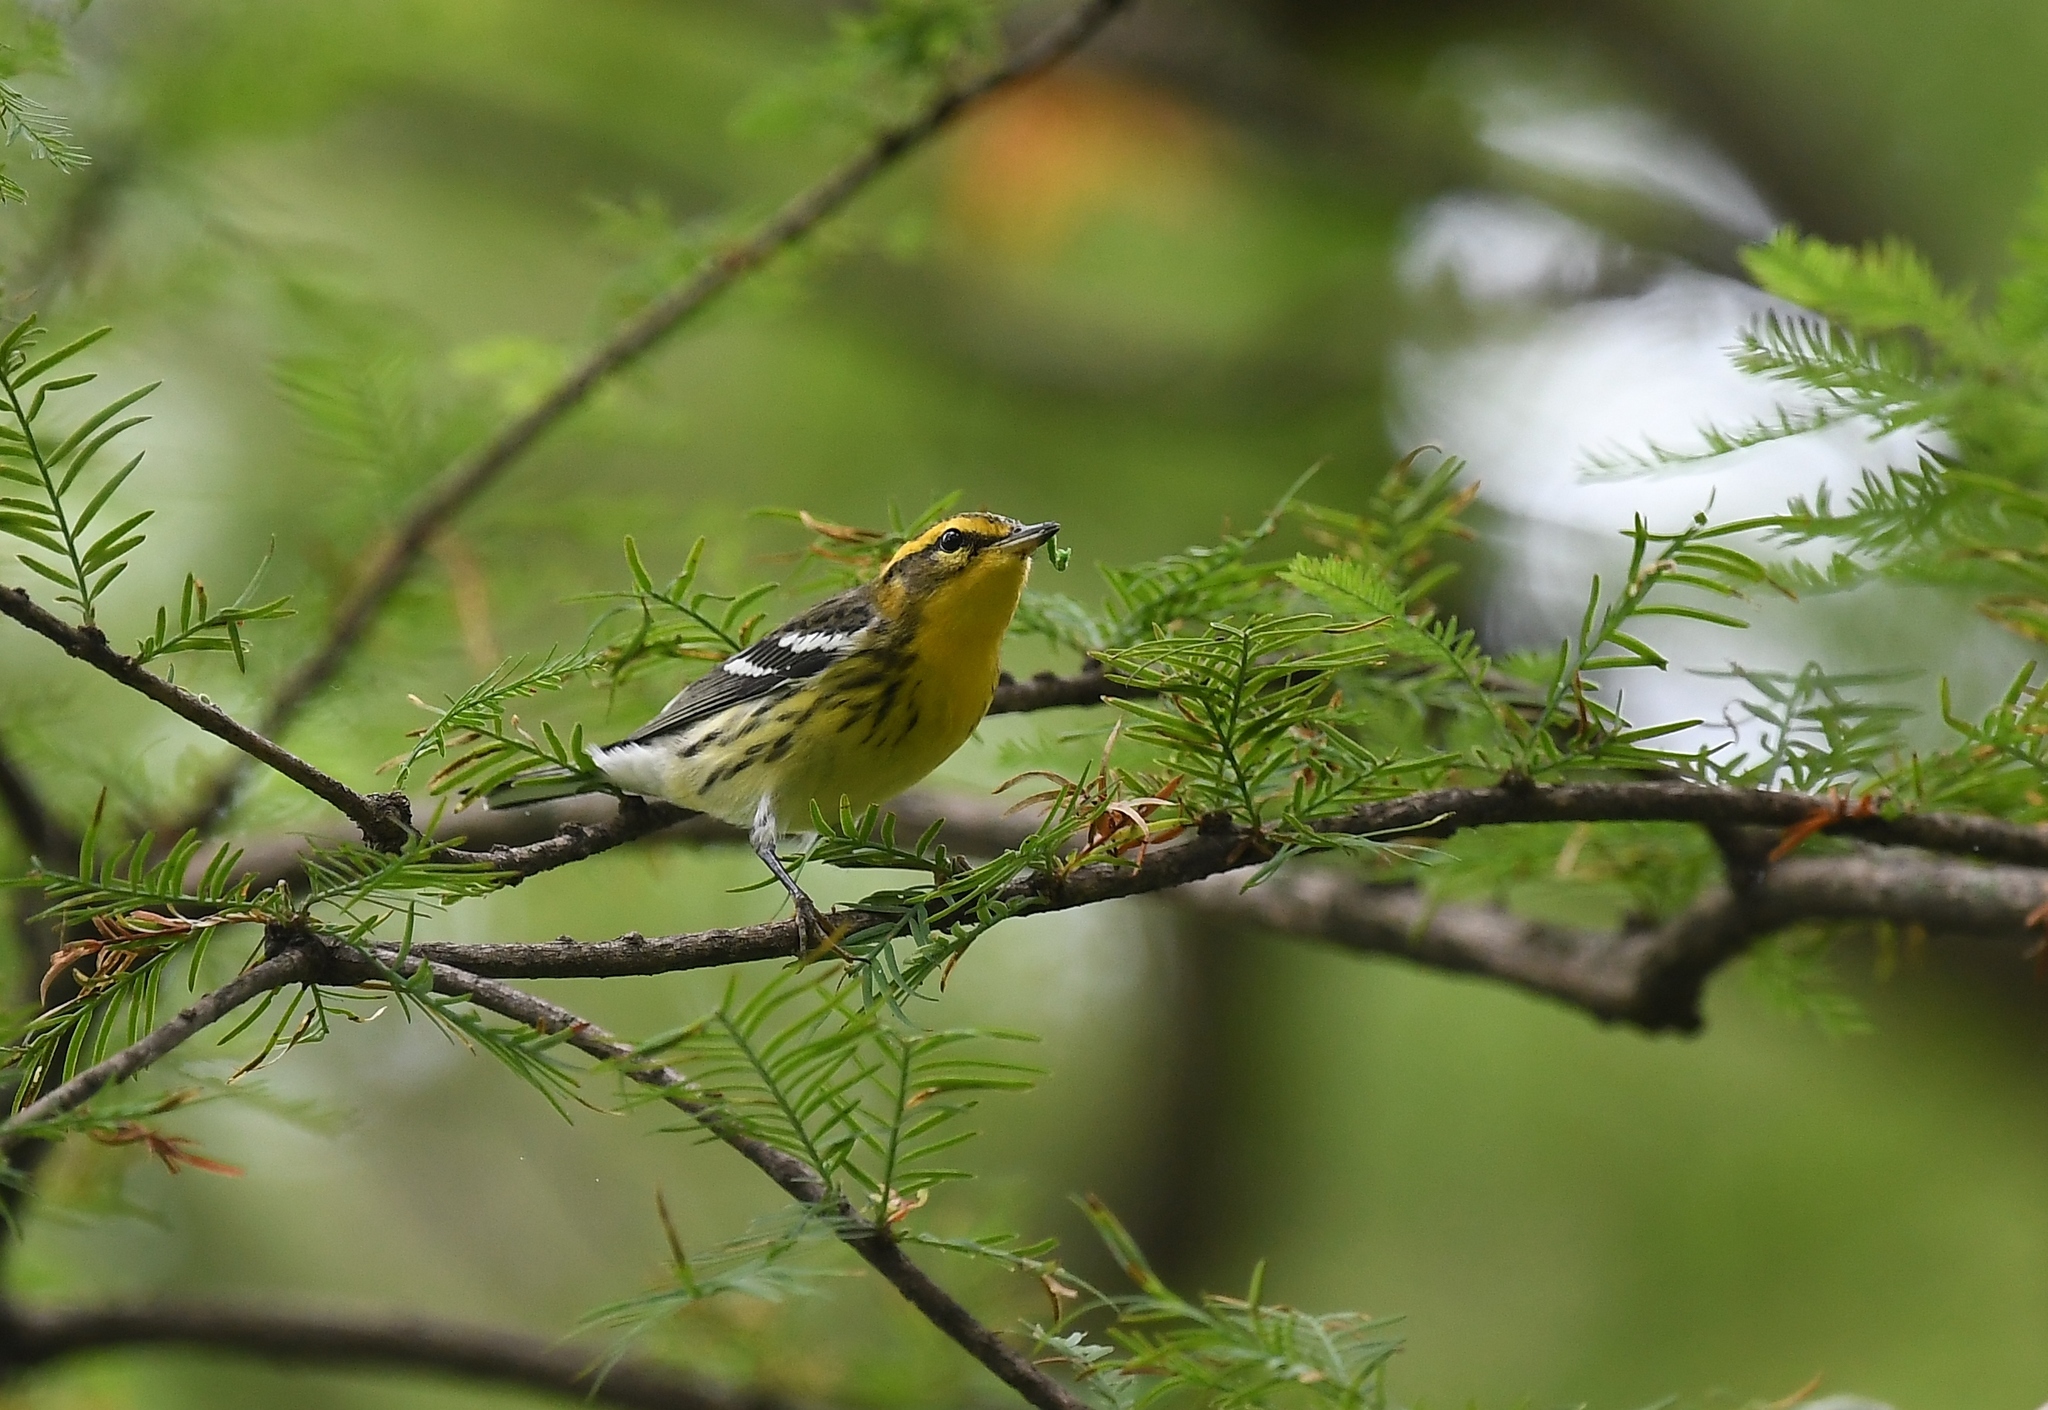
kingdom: Animalia
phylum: Chordata
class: Aves
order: Passeriformes
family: Parulidae
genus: Setophaga
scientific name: Setophaga fusca
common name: Blackburnian warbler
